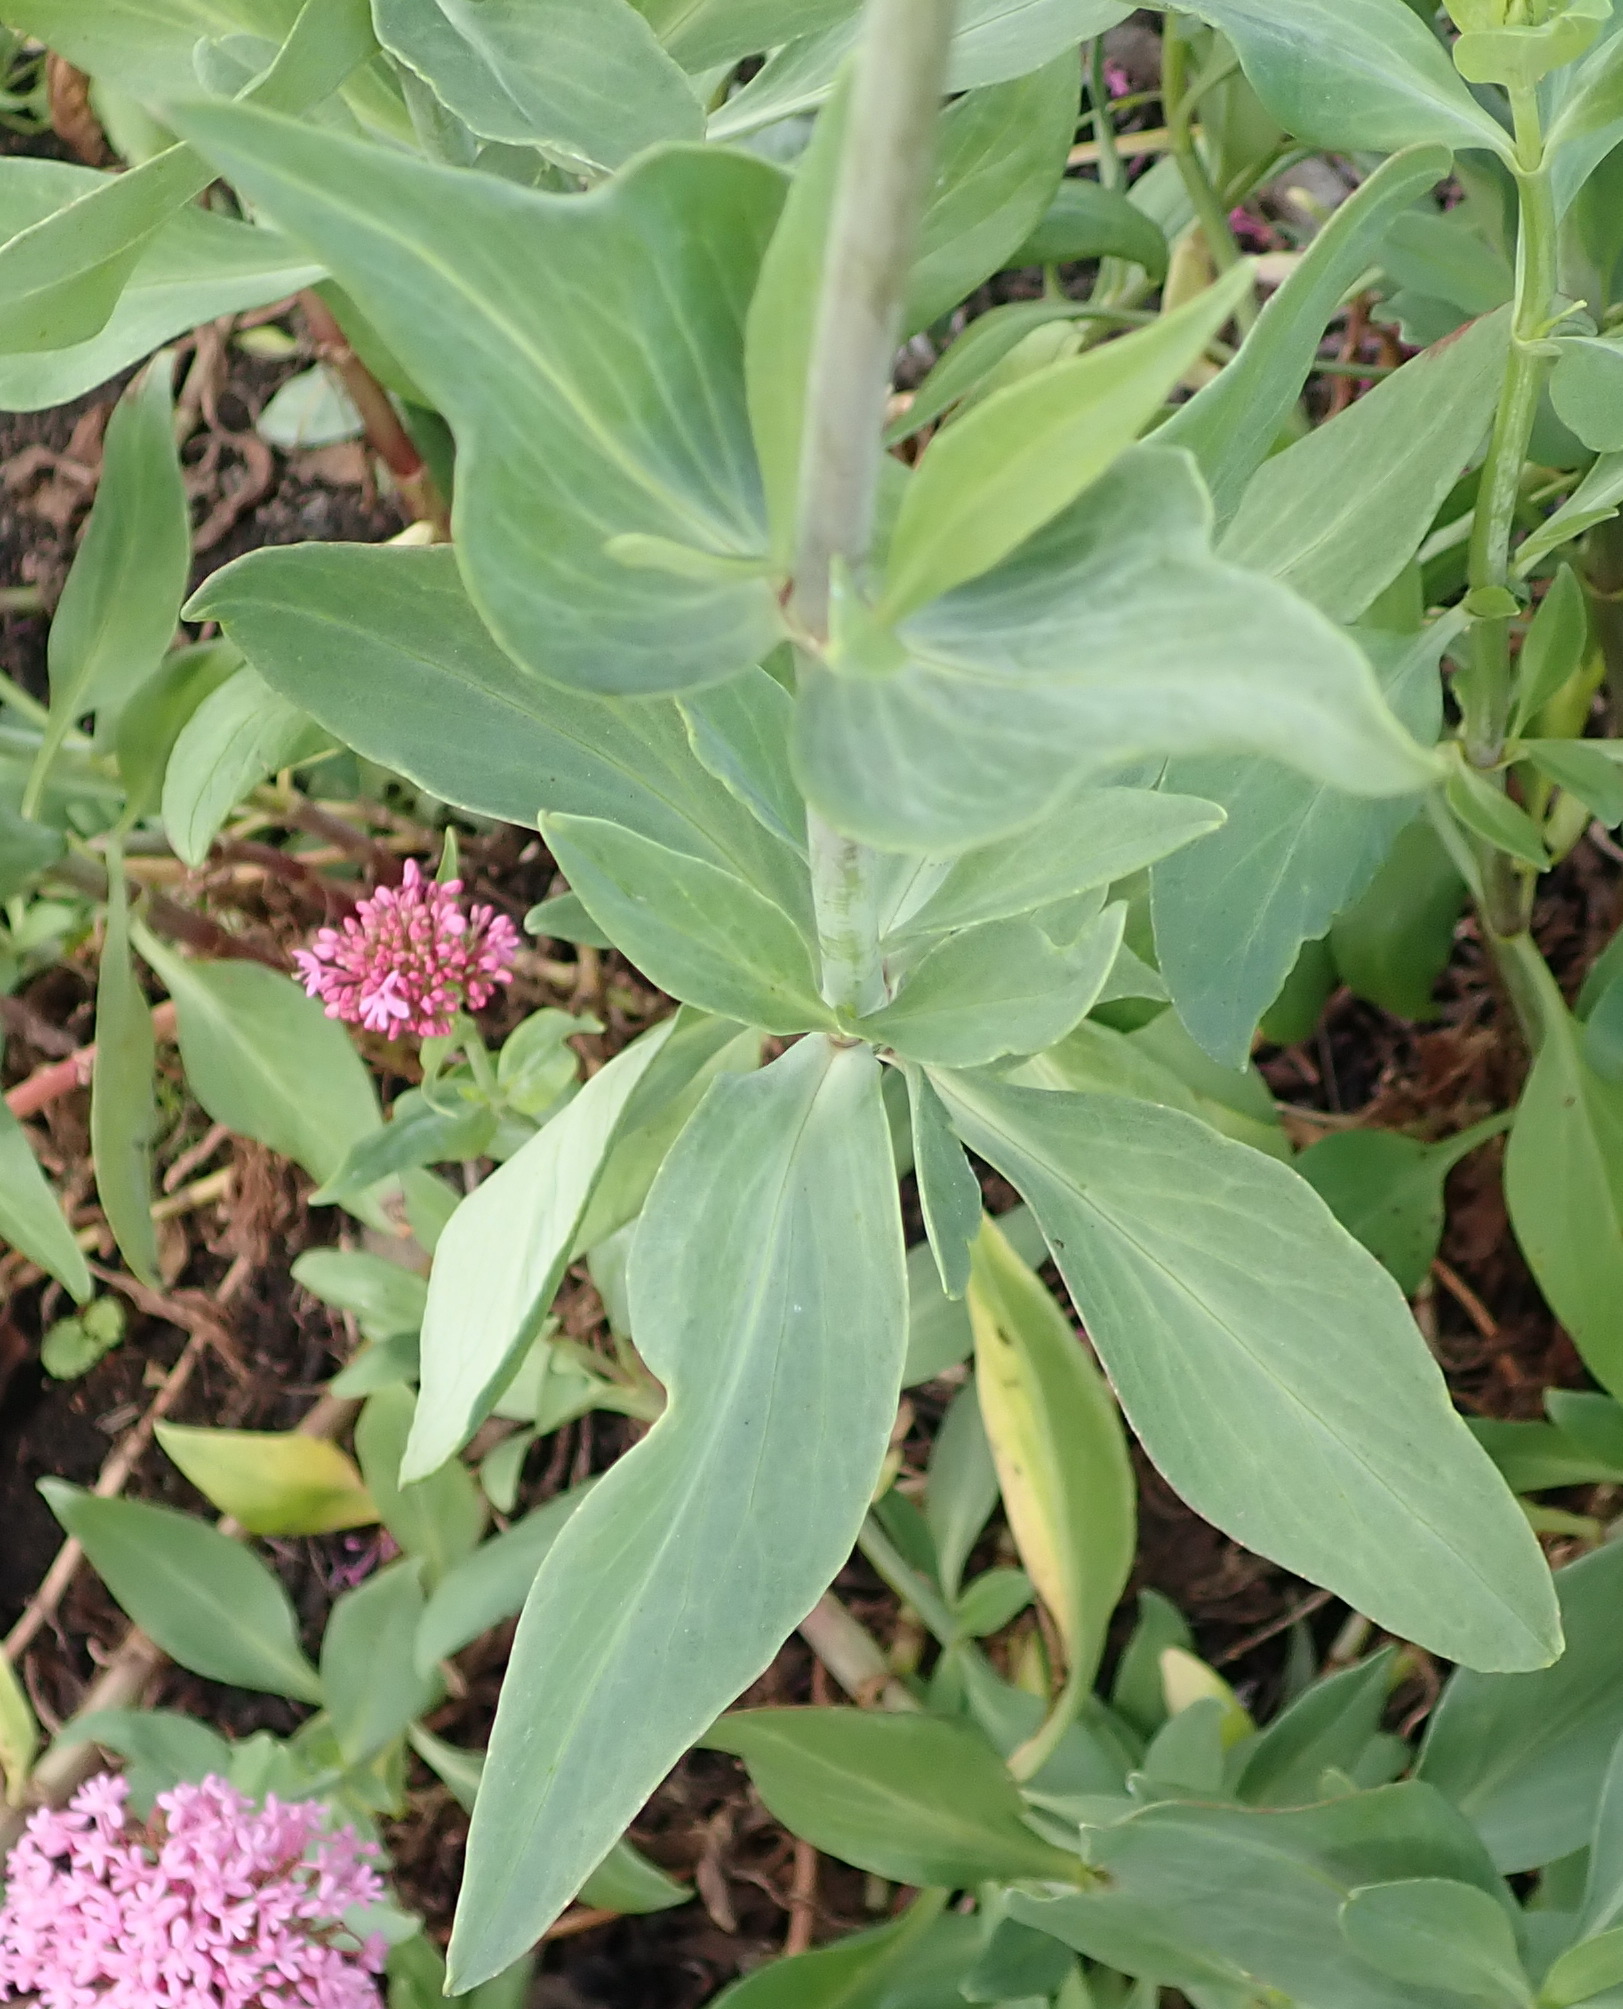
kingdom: Plantae
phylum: Tracheophyta
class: Magnoliopsida
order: Dipsacales
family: Caprifoliaceae
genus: Centranthus
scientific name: Centranthus ruber
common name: Red valerian
